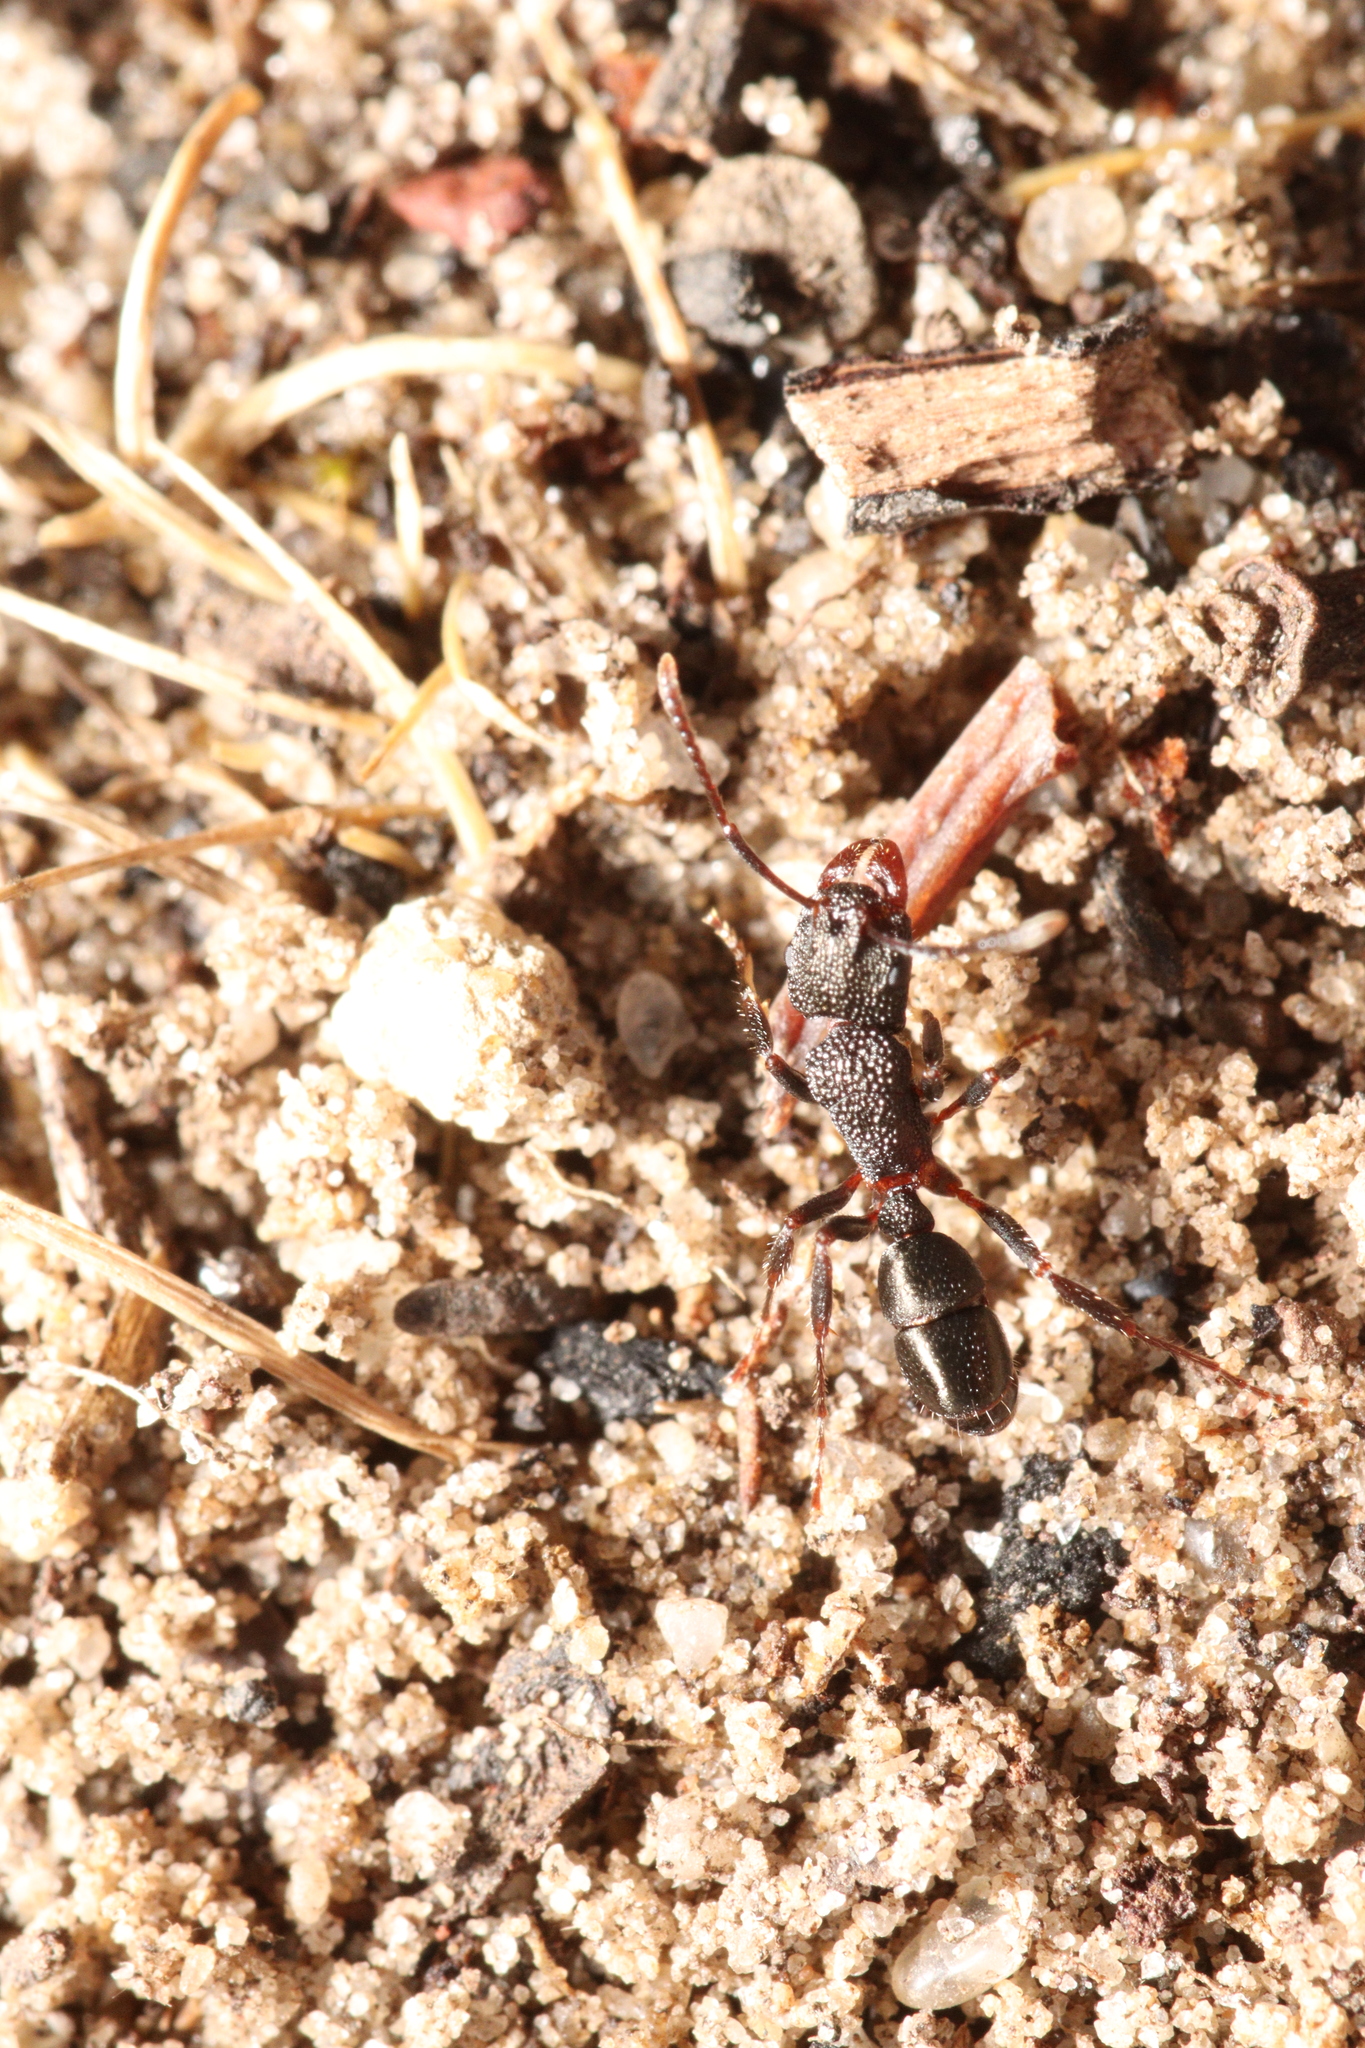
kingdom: Animalia
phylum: Arthropoda
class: Insecta
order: Hymenoptera
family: Formicidae
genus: Rhytidoponera
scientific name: Rhytidoponera tasmaniensis
